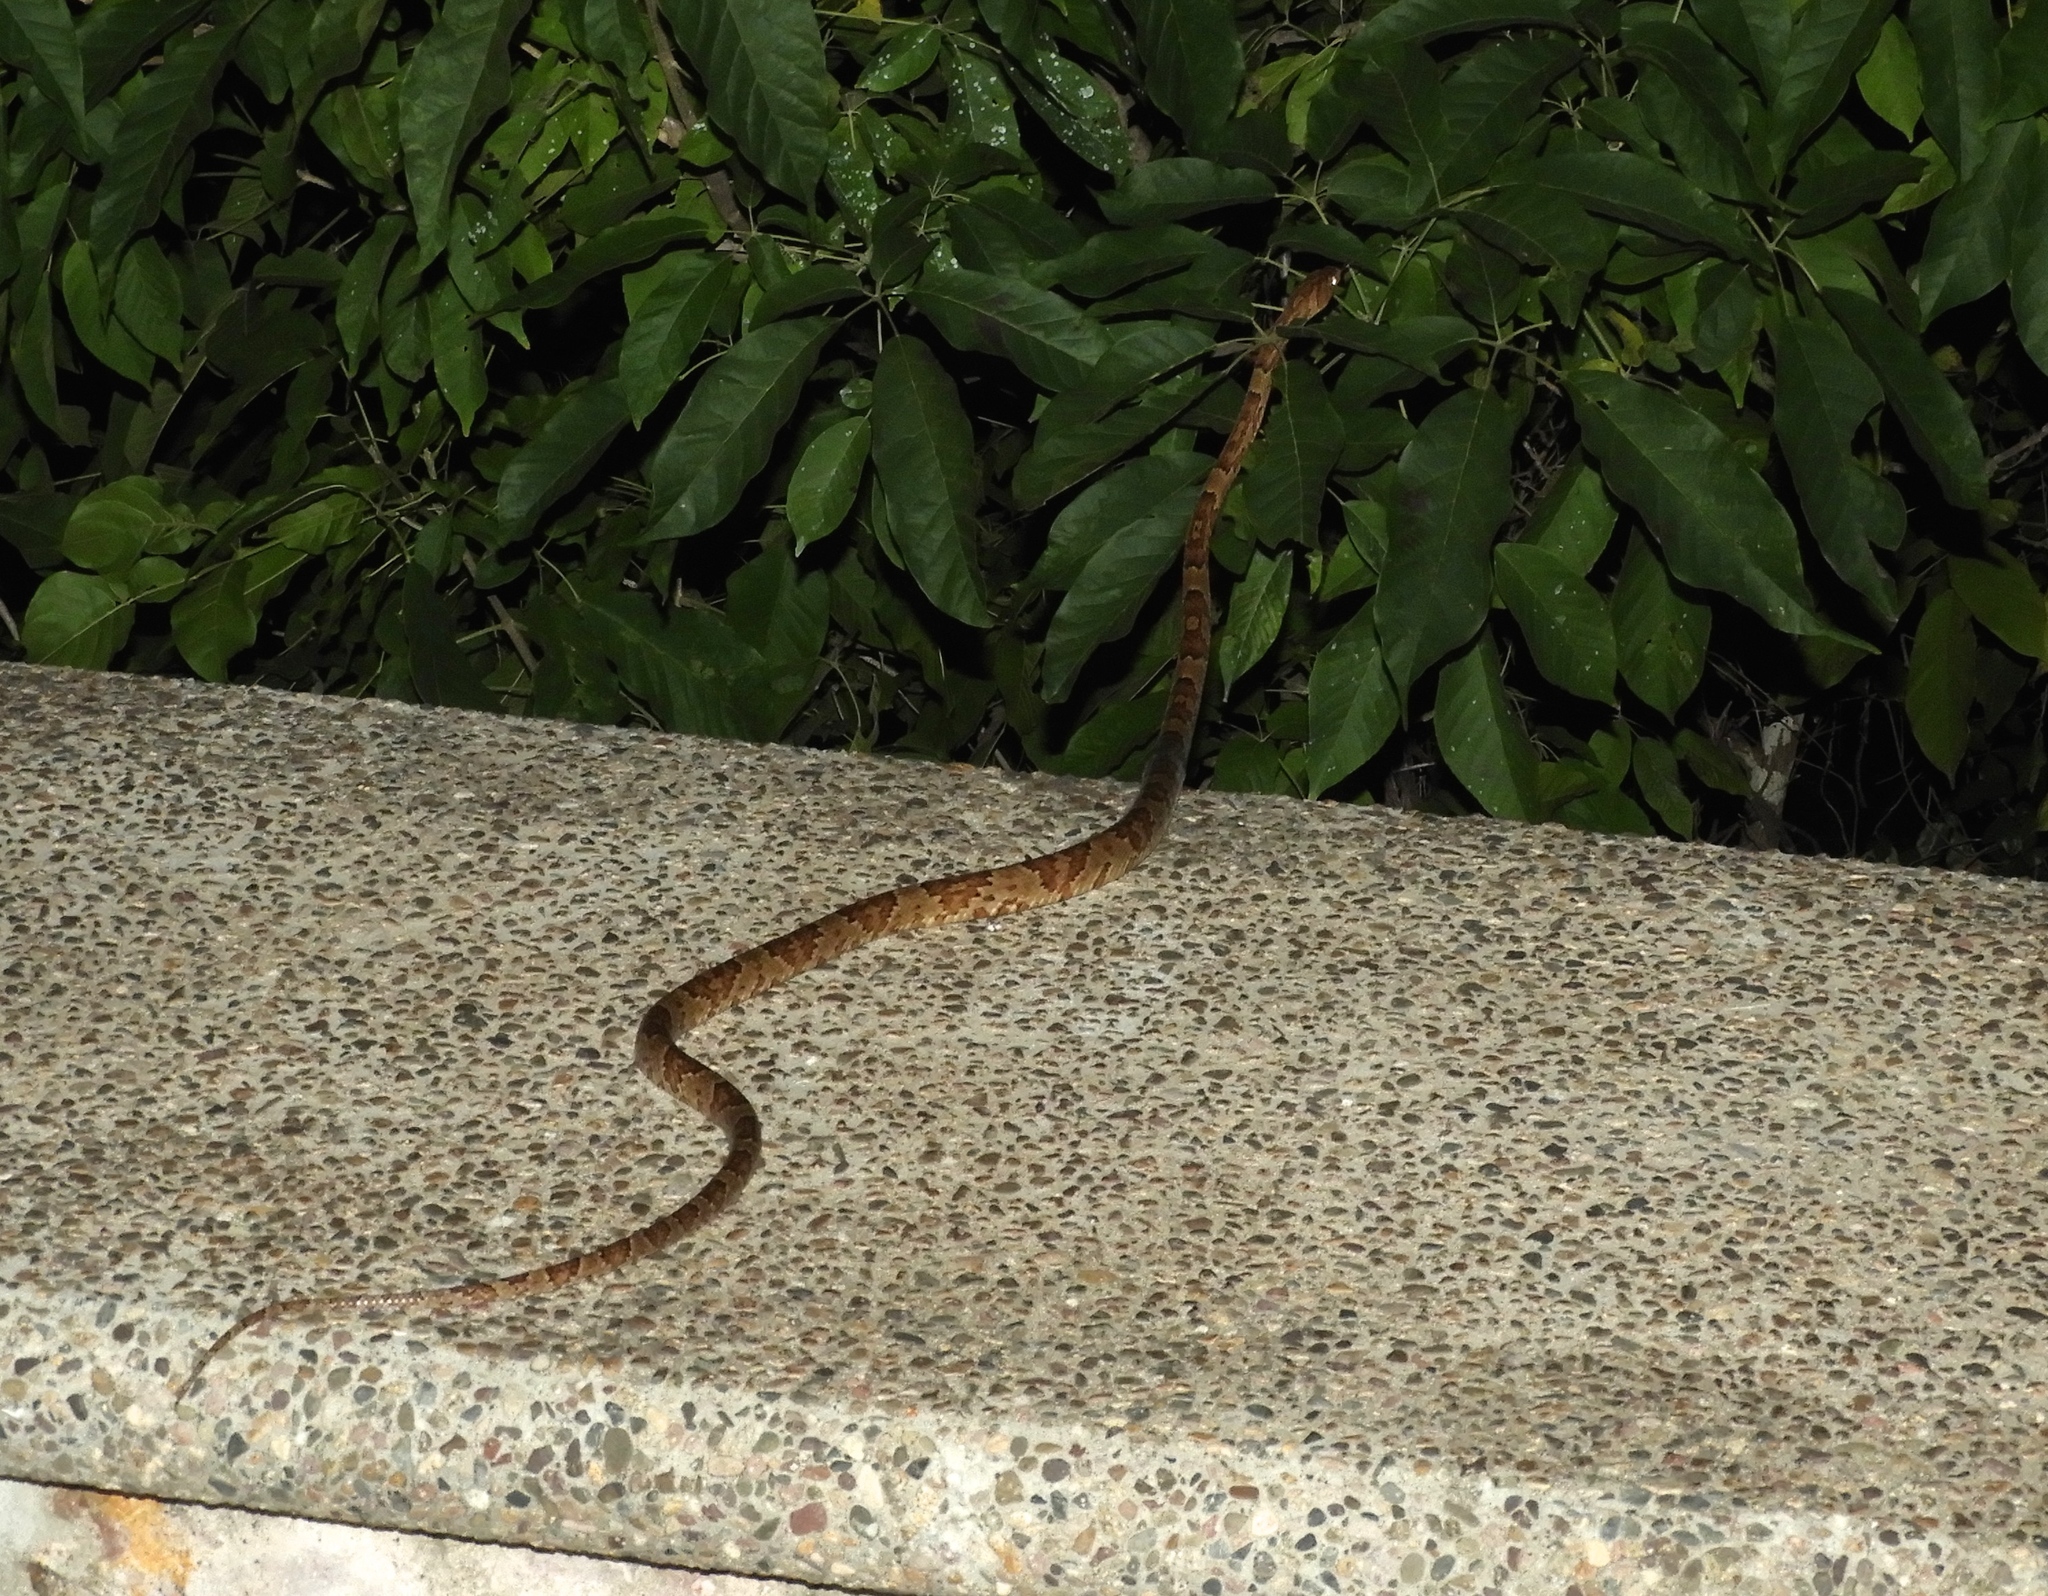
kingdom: Animalia
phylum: Chordata
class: Squamata
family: Colubridae
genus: Trimorphodon
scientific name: Trimorphodon paucimaculatus
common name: Sinaloan lyresnake
